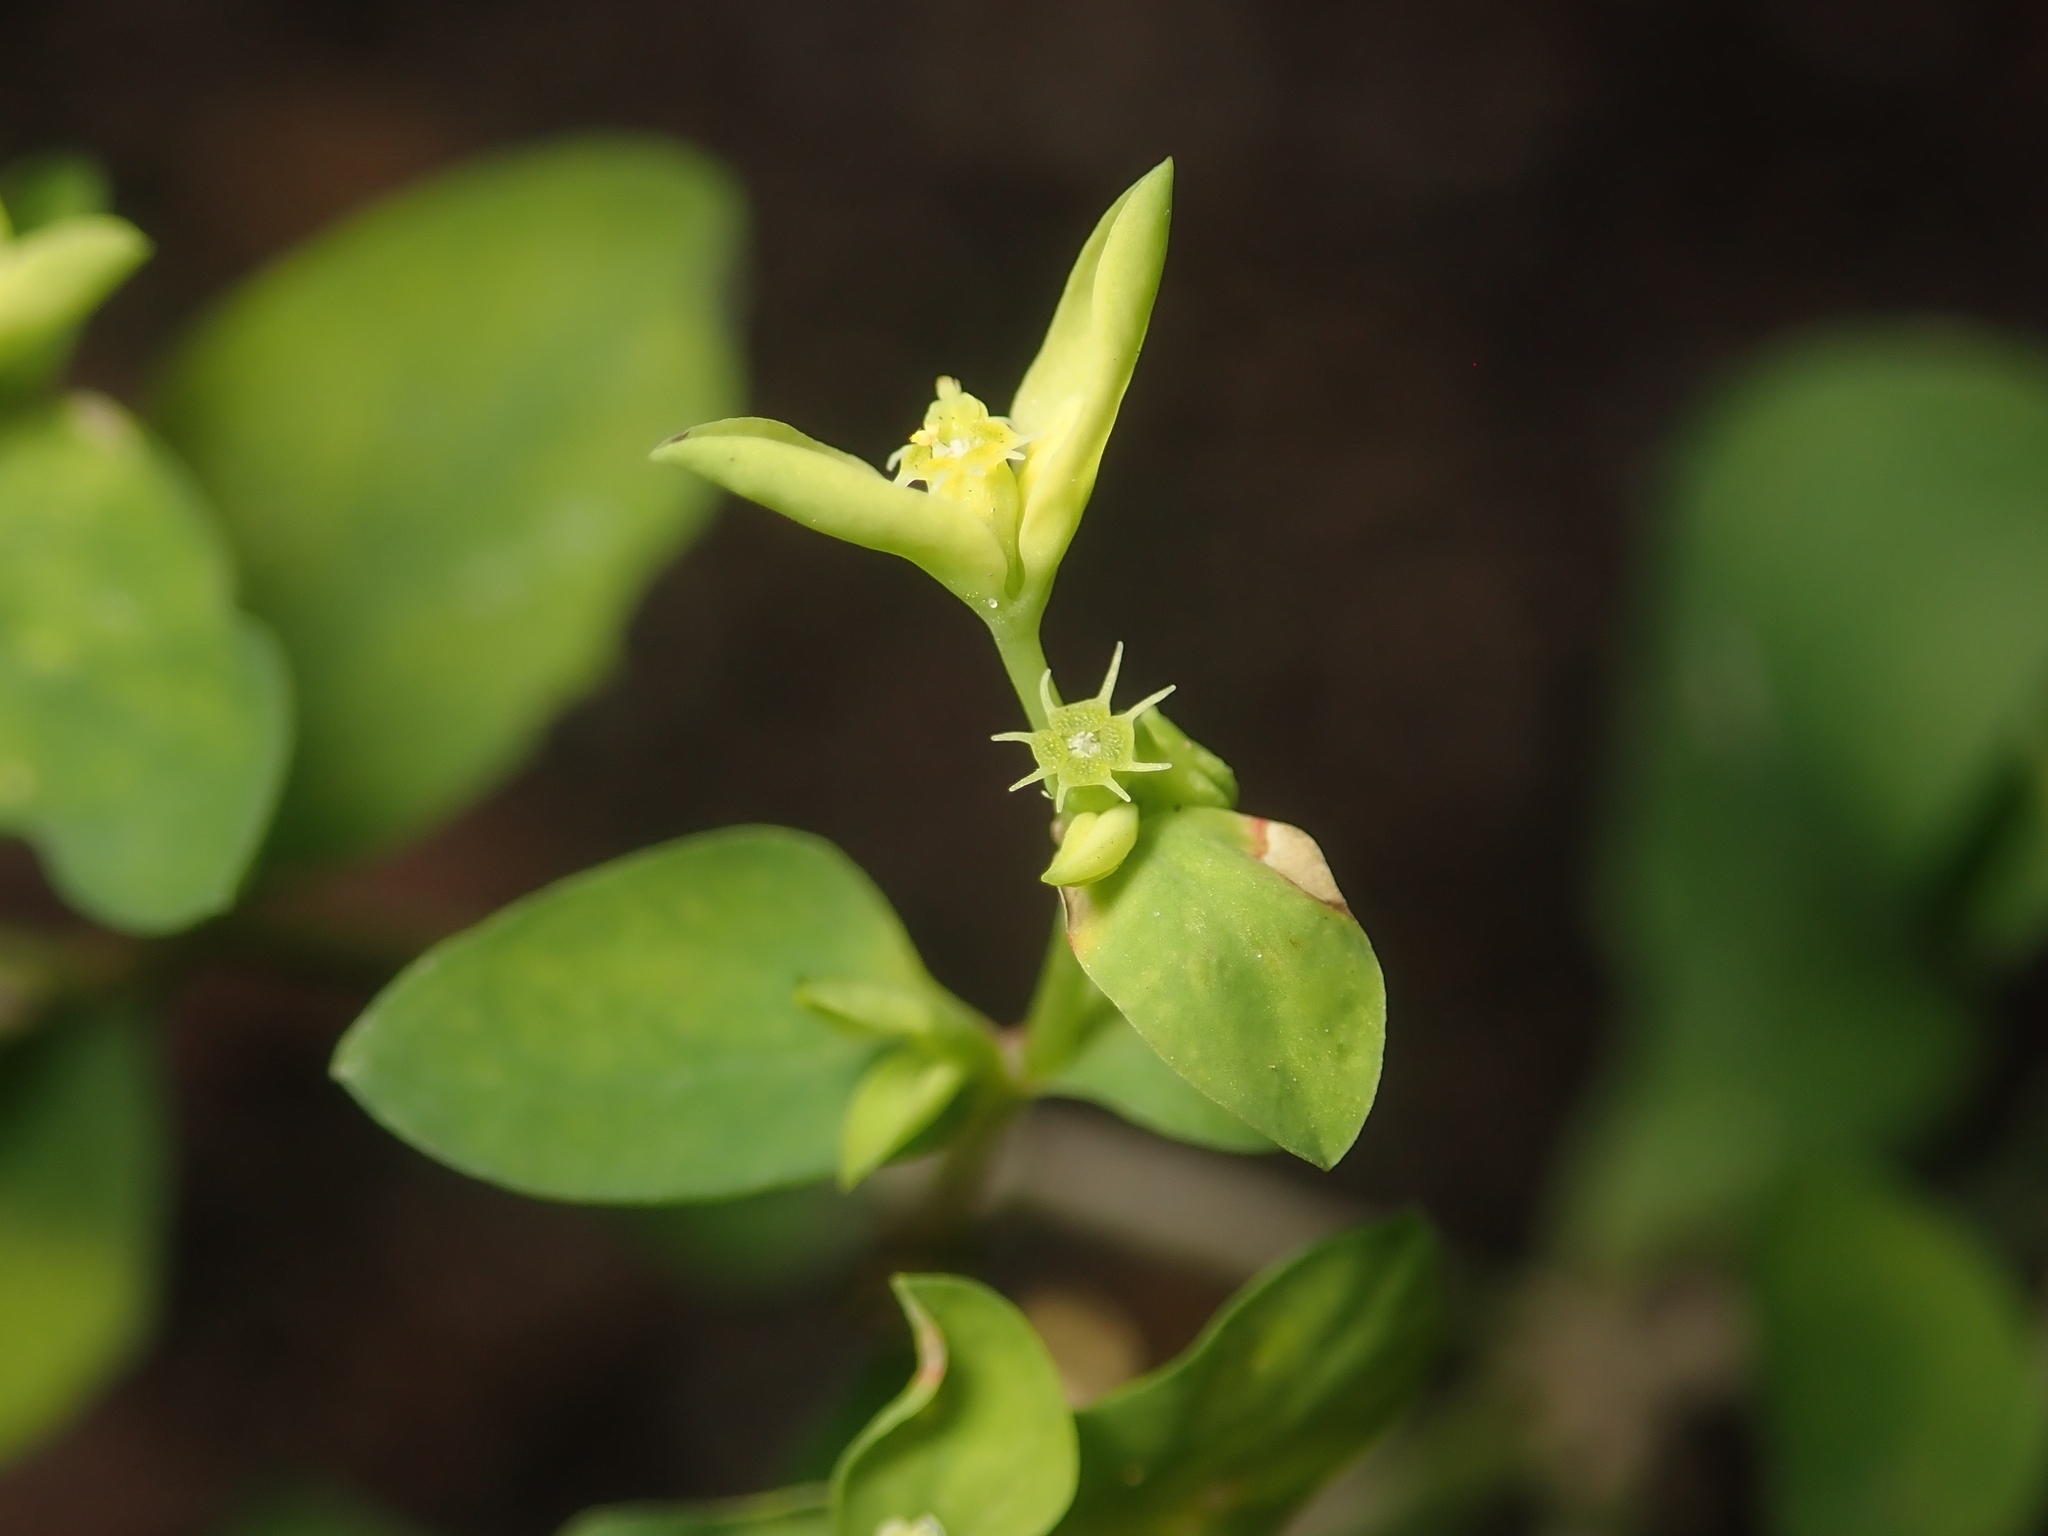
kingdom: Plantae
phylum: Tracheophyta
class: Magnoliopsida
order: Malpighiales
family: Euphorbiaceae
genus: Euphorbia
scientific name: Euphorbia peplus
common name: Petty spurge
